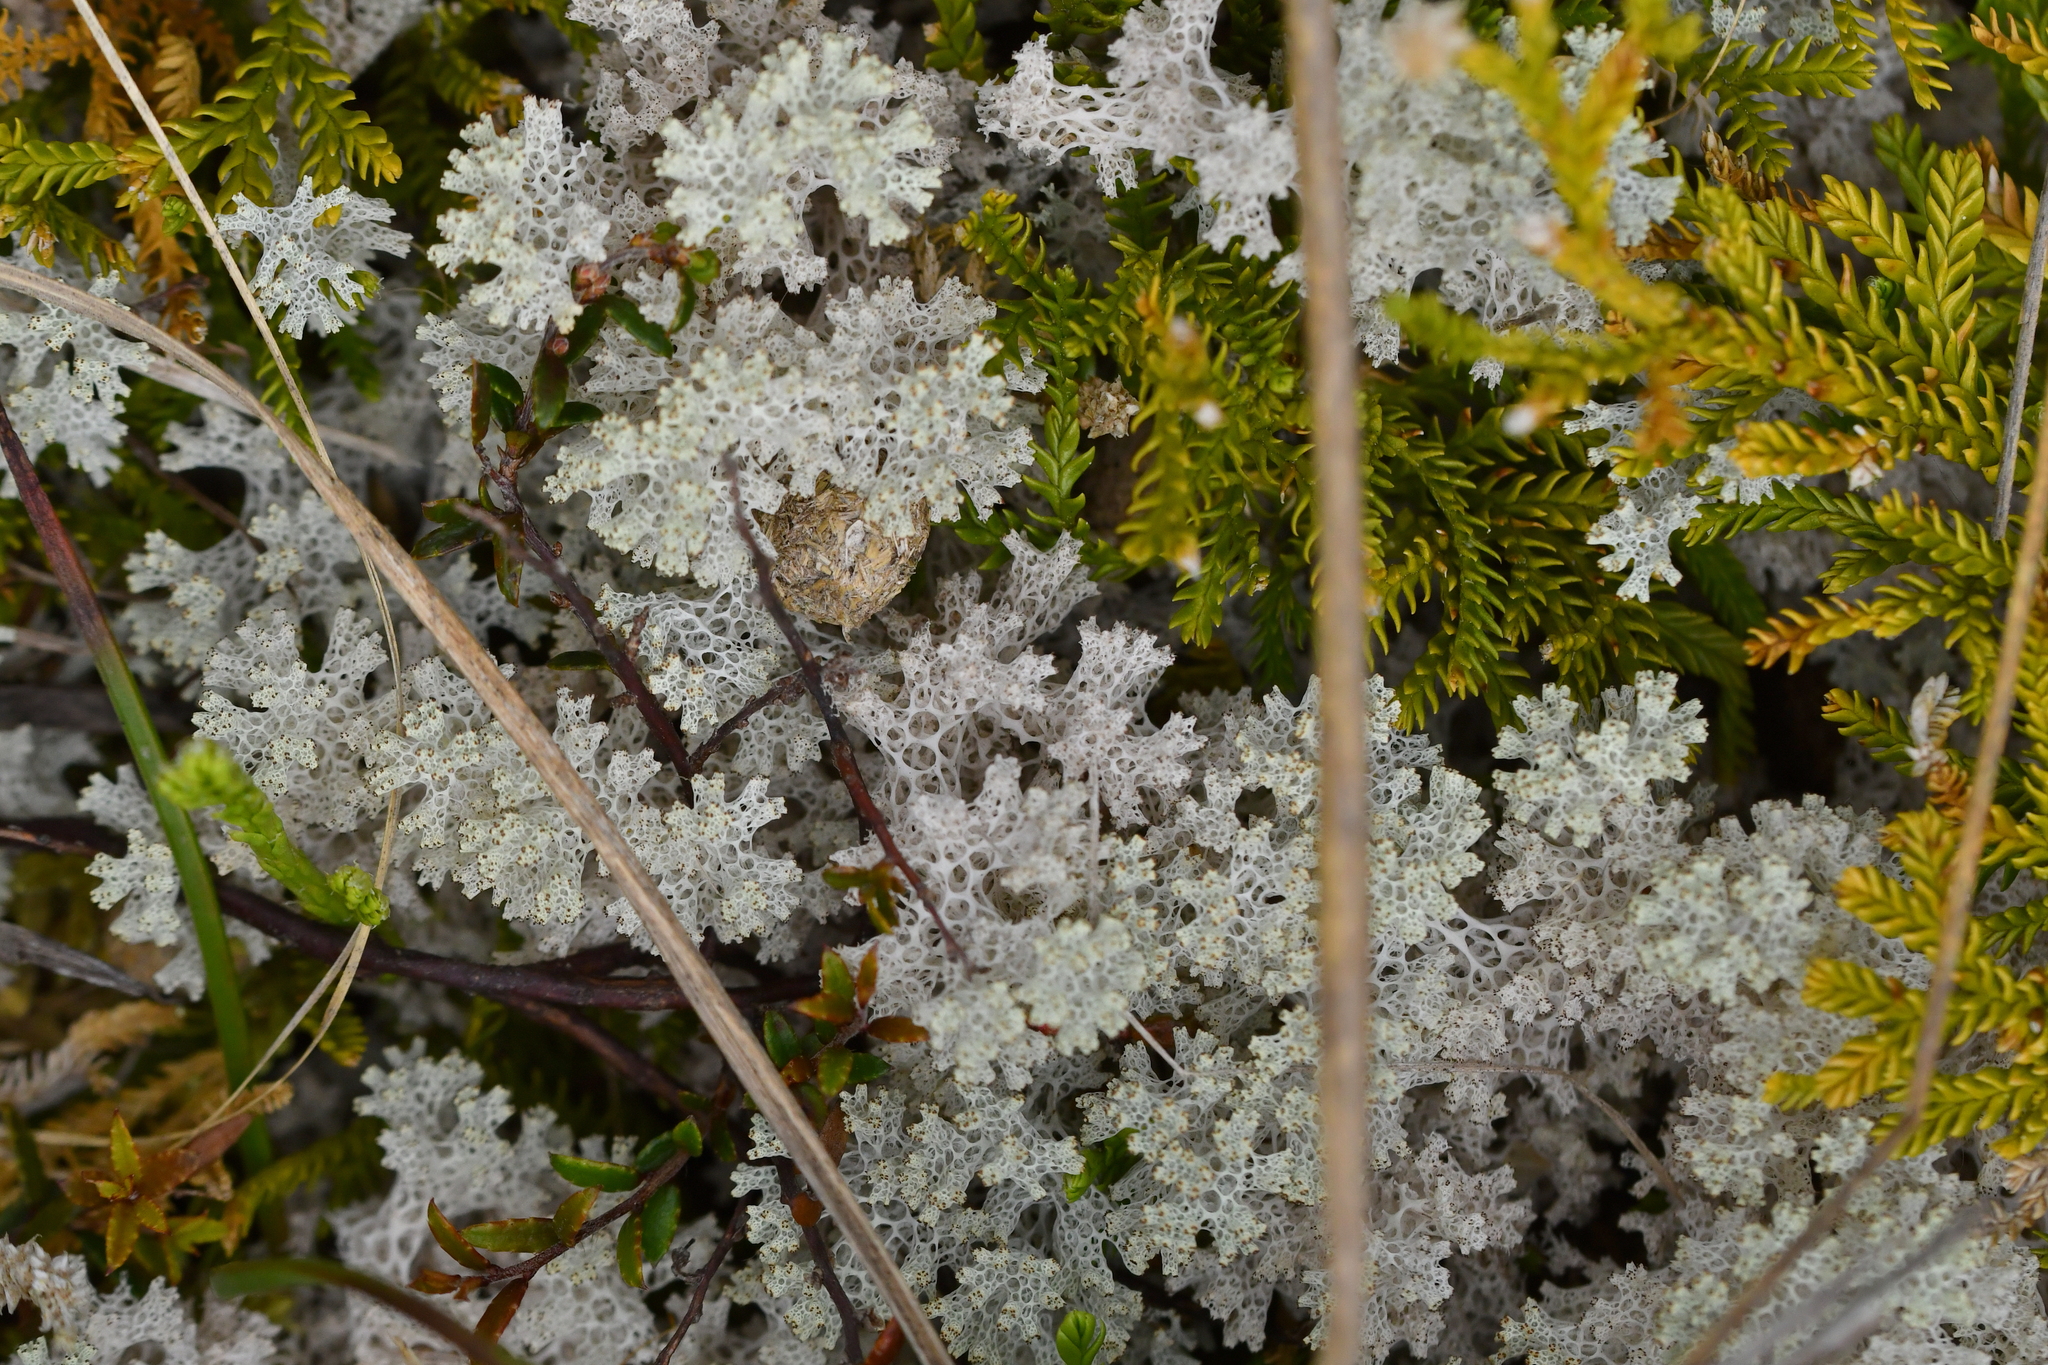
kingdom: Fungi
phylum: Ascomycota
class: Lecanoromycetes
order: Lecanorales
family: Cladoniaceae
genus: Pulchrocladia
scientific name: Pulchrocladia retipora
